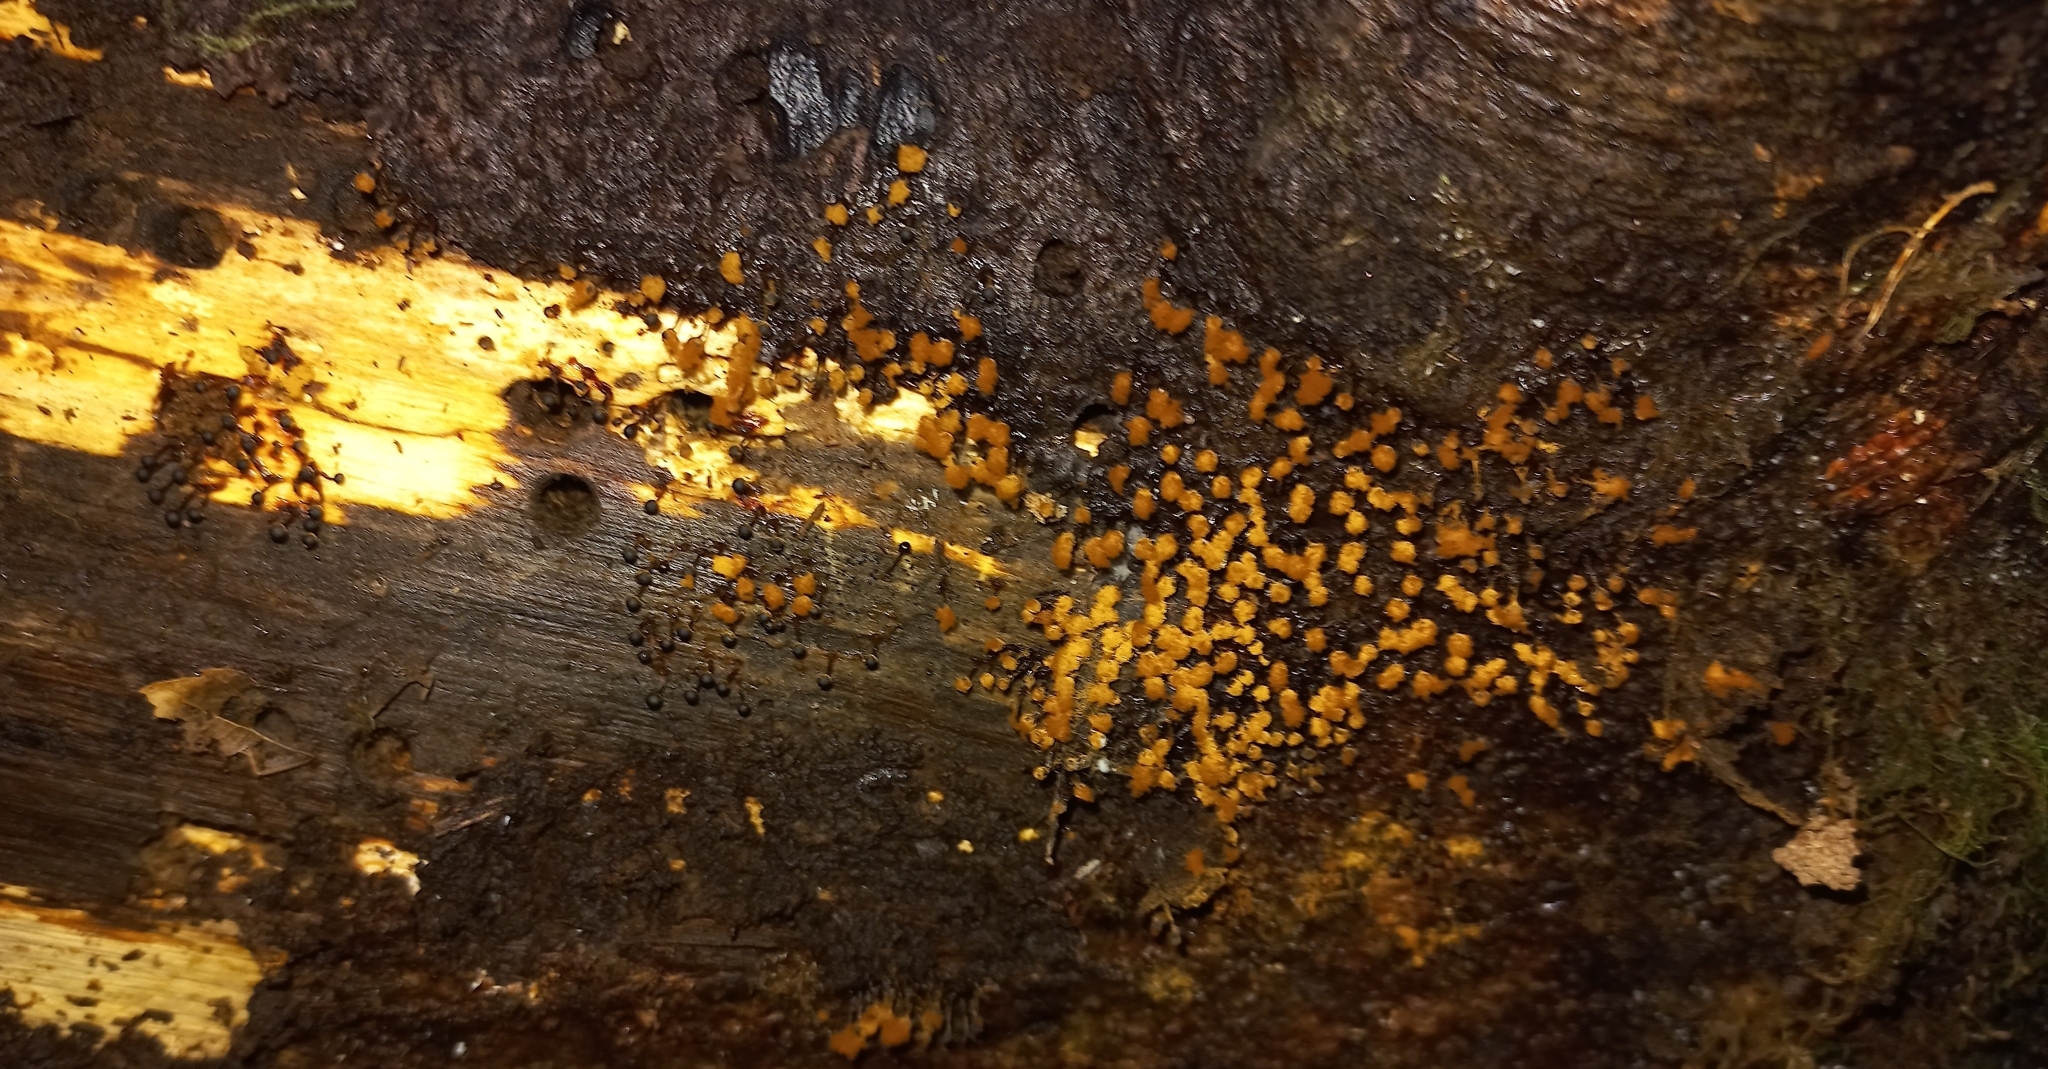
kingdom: Protozoa
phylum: Mycetozoa
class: Myxomycetes
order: Trichiales
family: Trichiaceae
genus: Metatrichia
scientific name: Metatrichia floriformis
